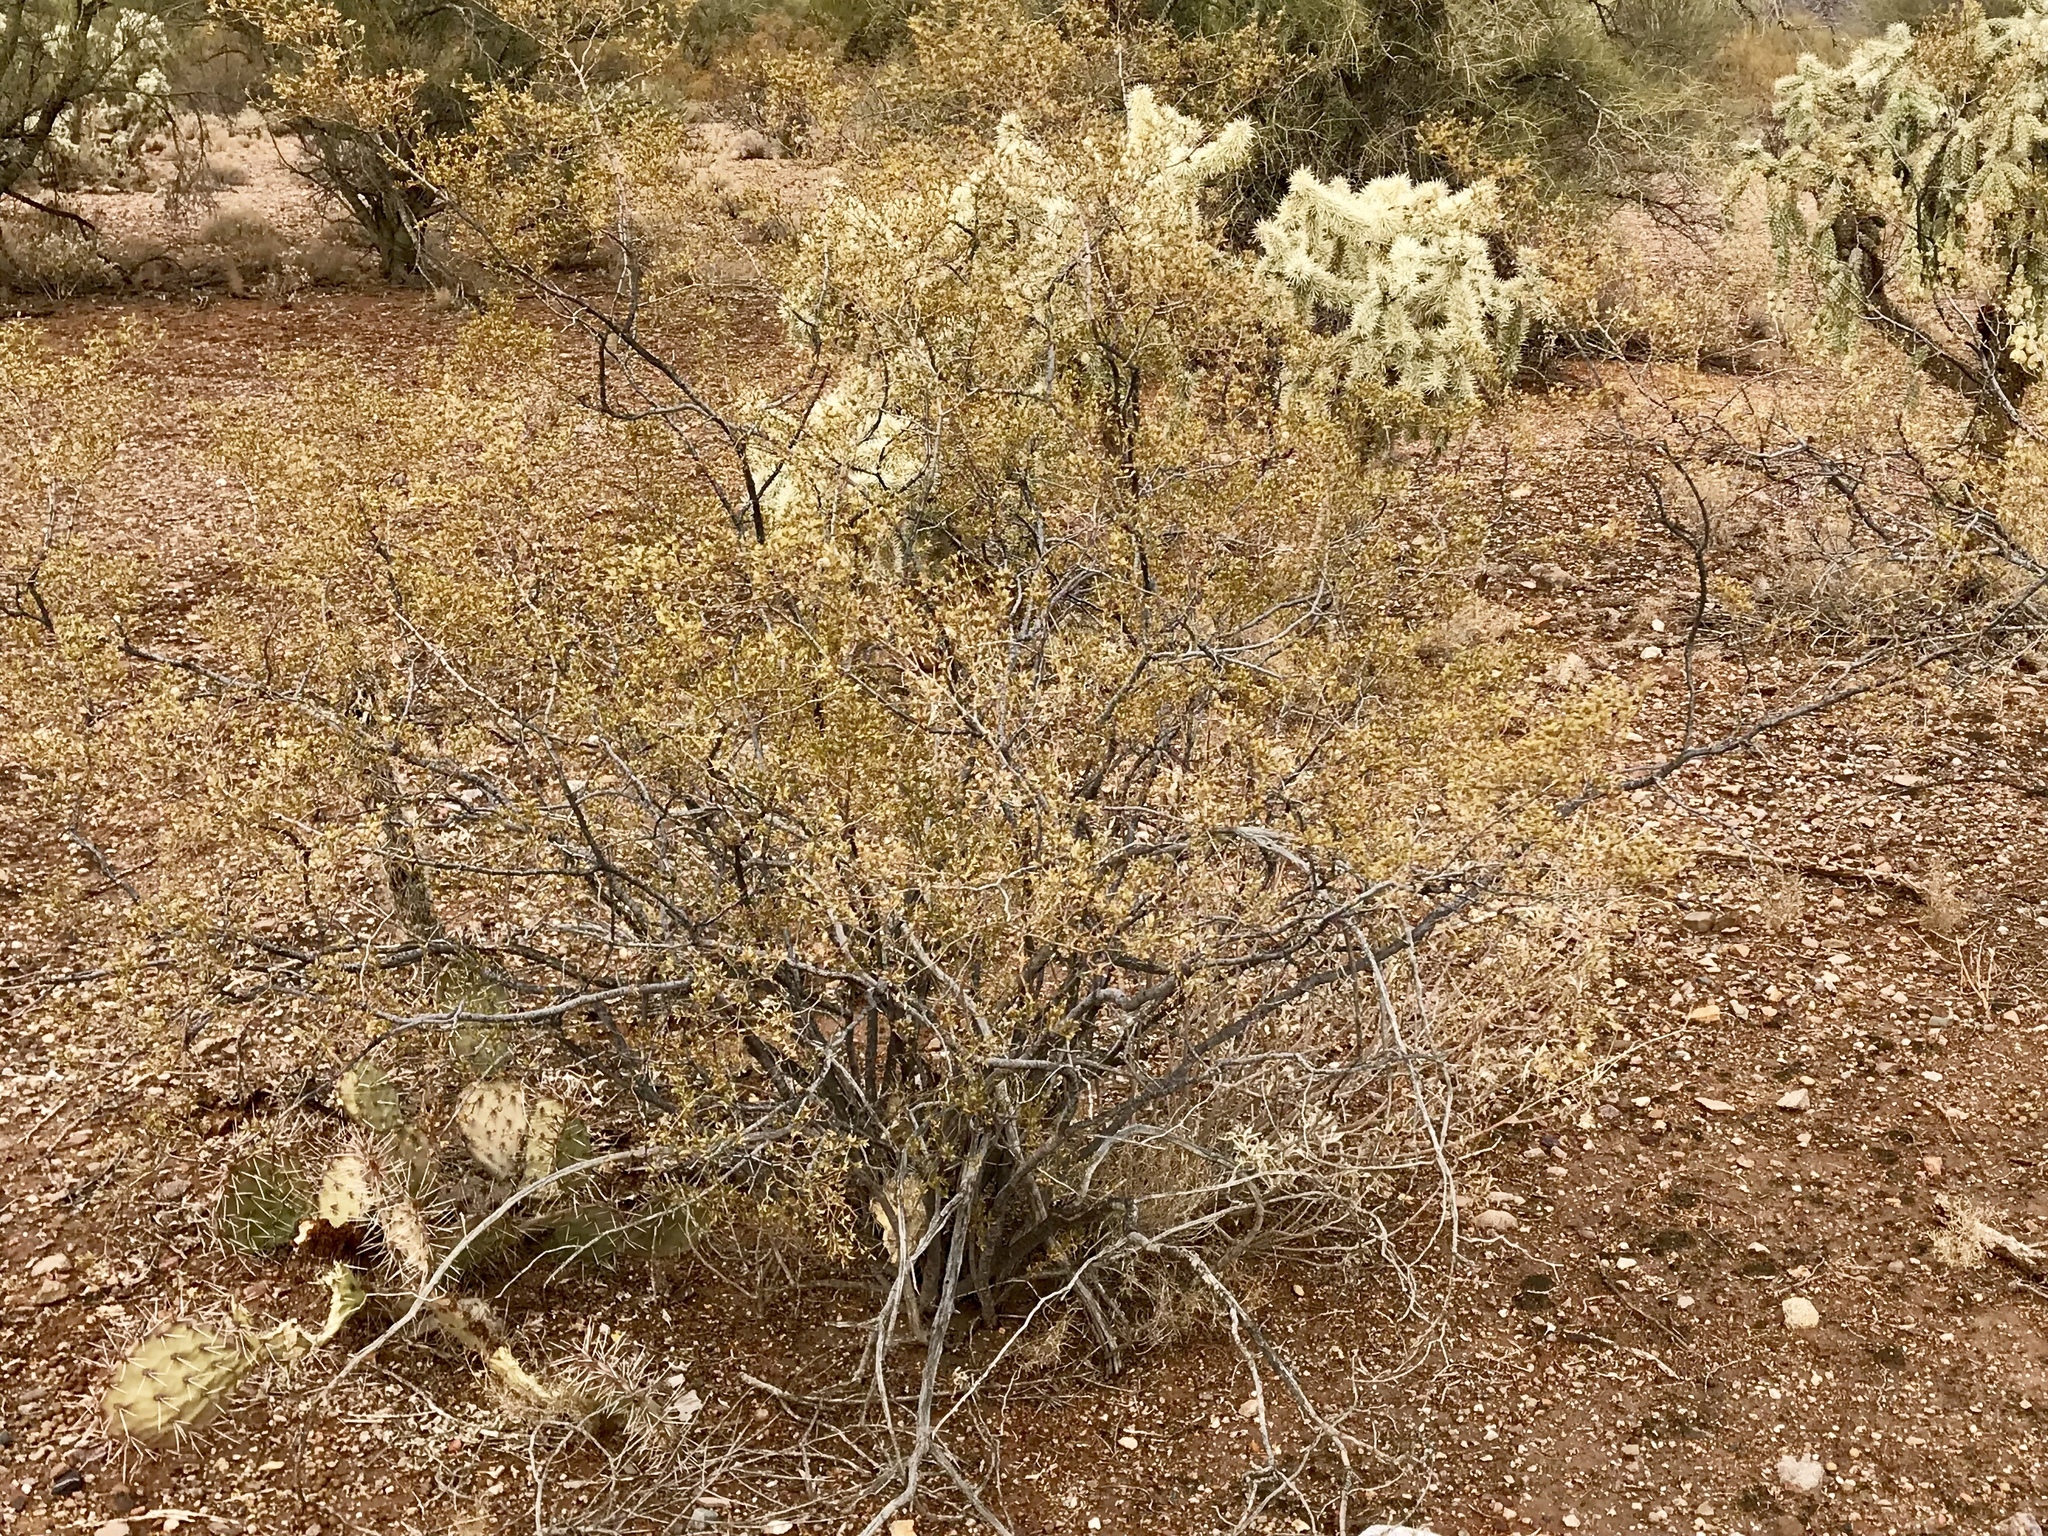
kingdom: Plantae
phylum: Tracheophyta
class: Magnoliopsida
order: Zygophyllales
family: Zygophyllaceae
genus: Larrea
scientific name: Larrea tridentata
